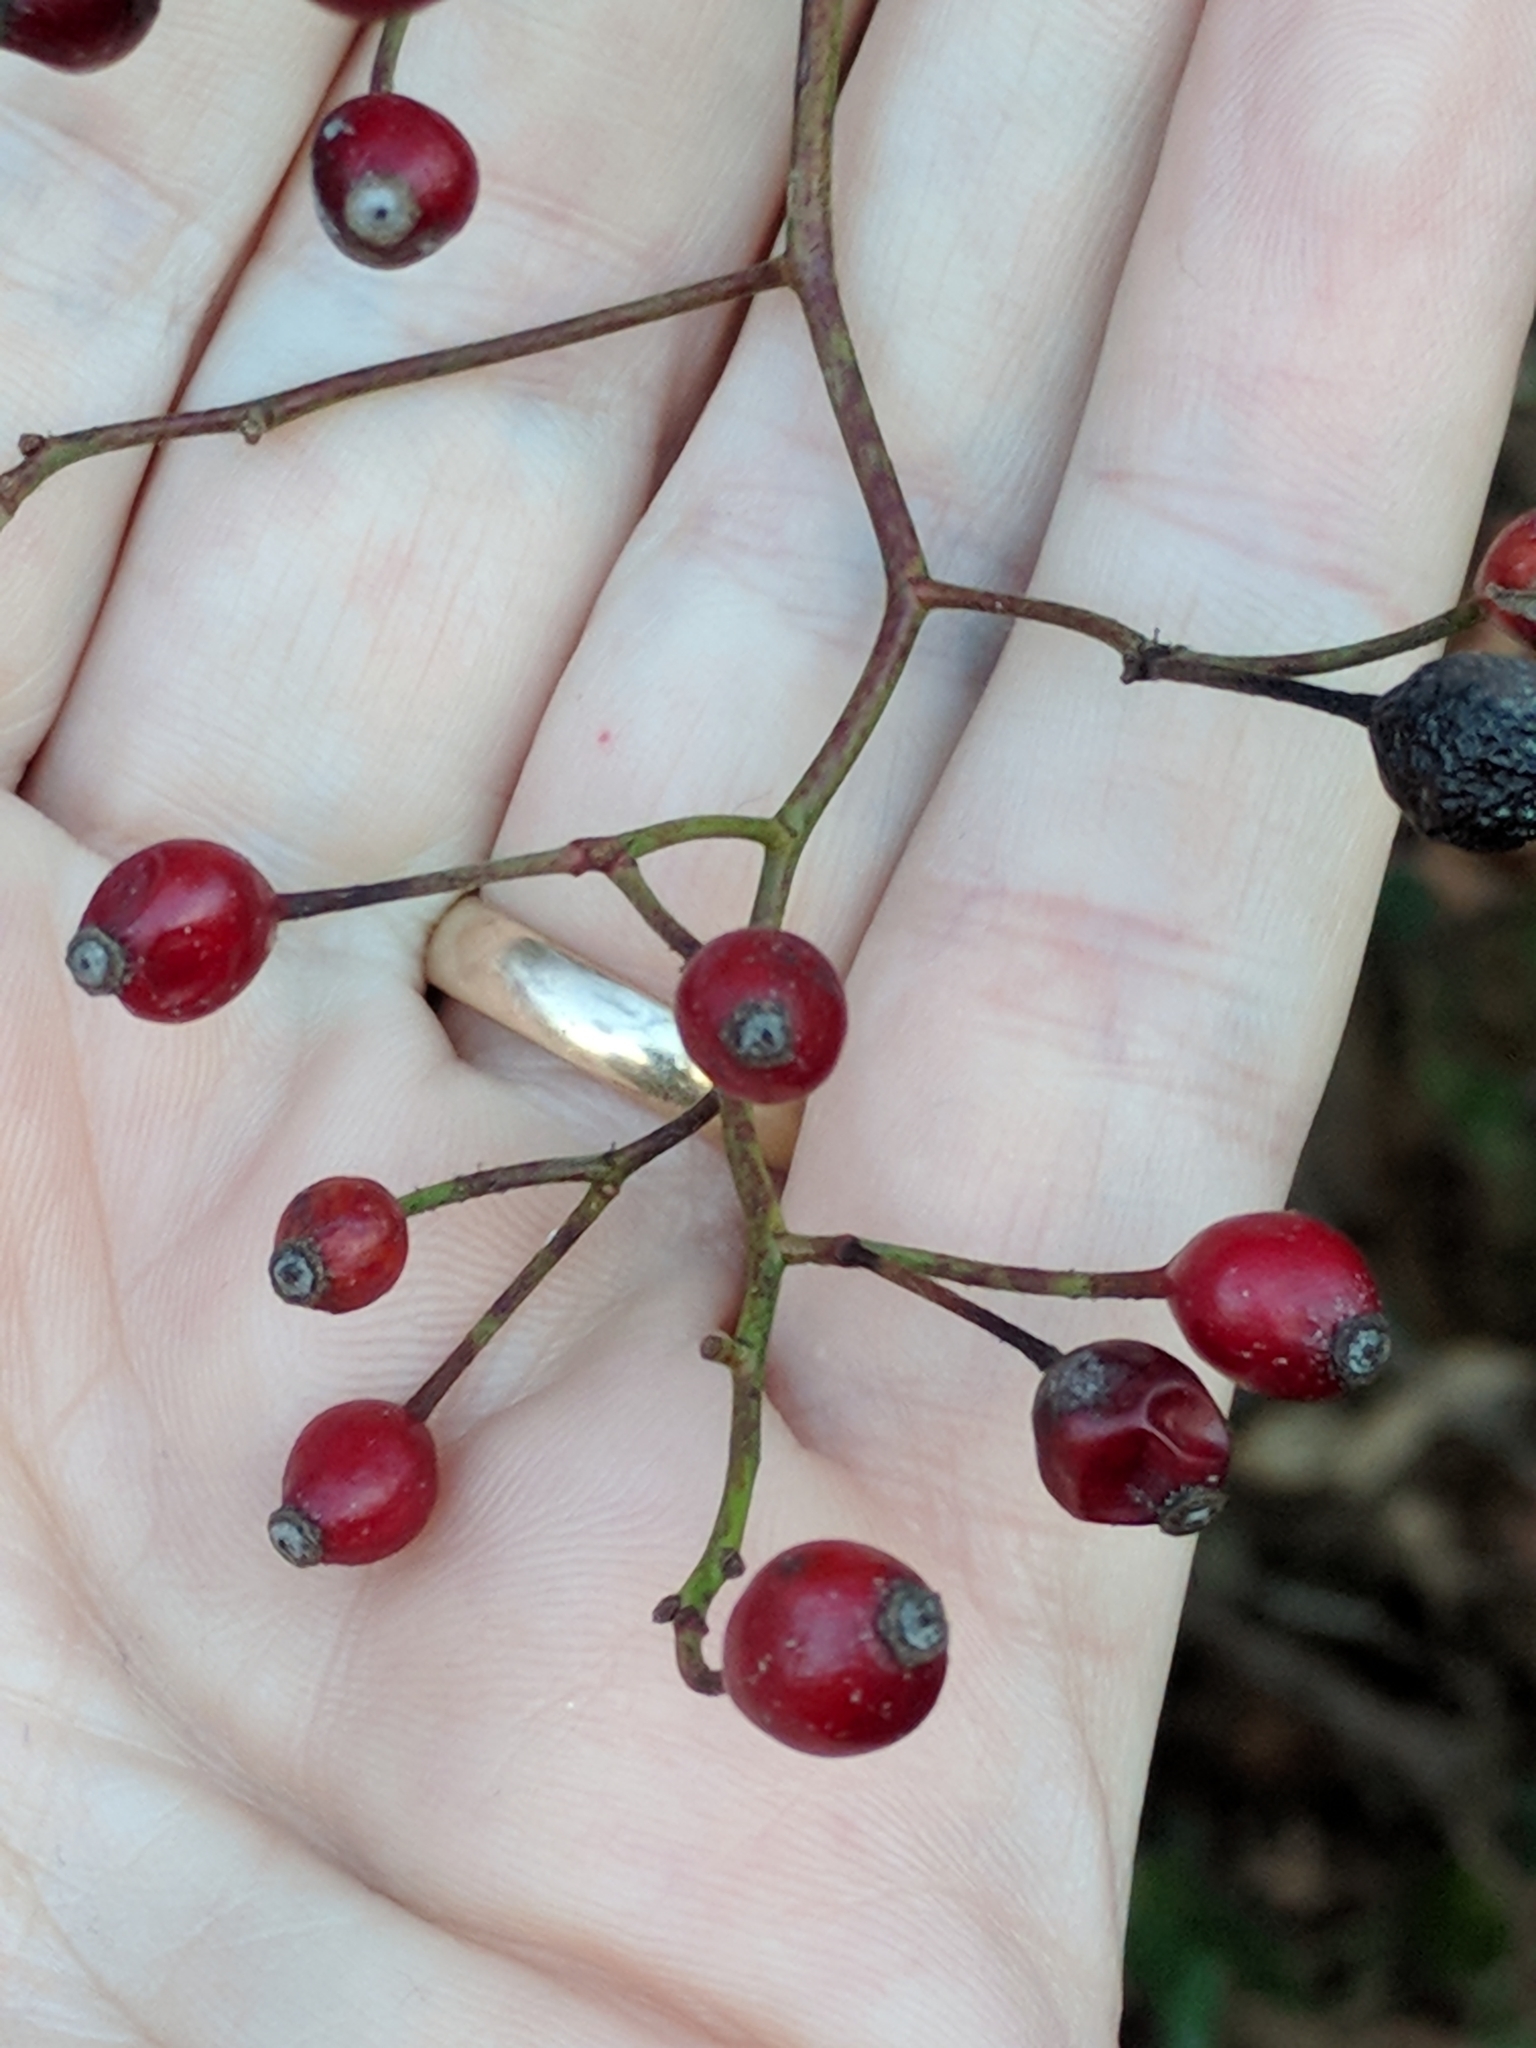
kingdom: Plantae
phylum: Tracheophyta
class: Magnoliopsida
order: Rosales
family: Rosaceae
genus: Rosa
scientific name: Rosa multiflora
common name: Multiflora rose
